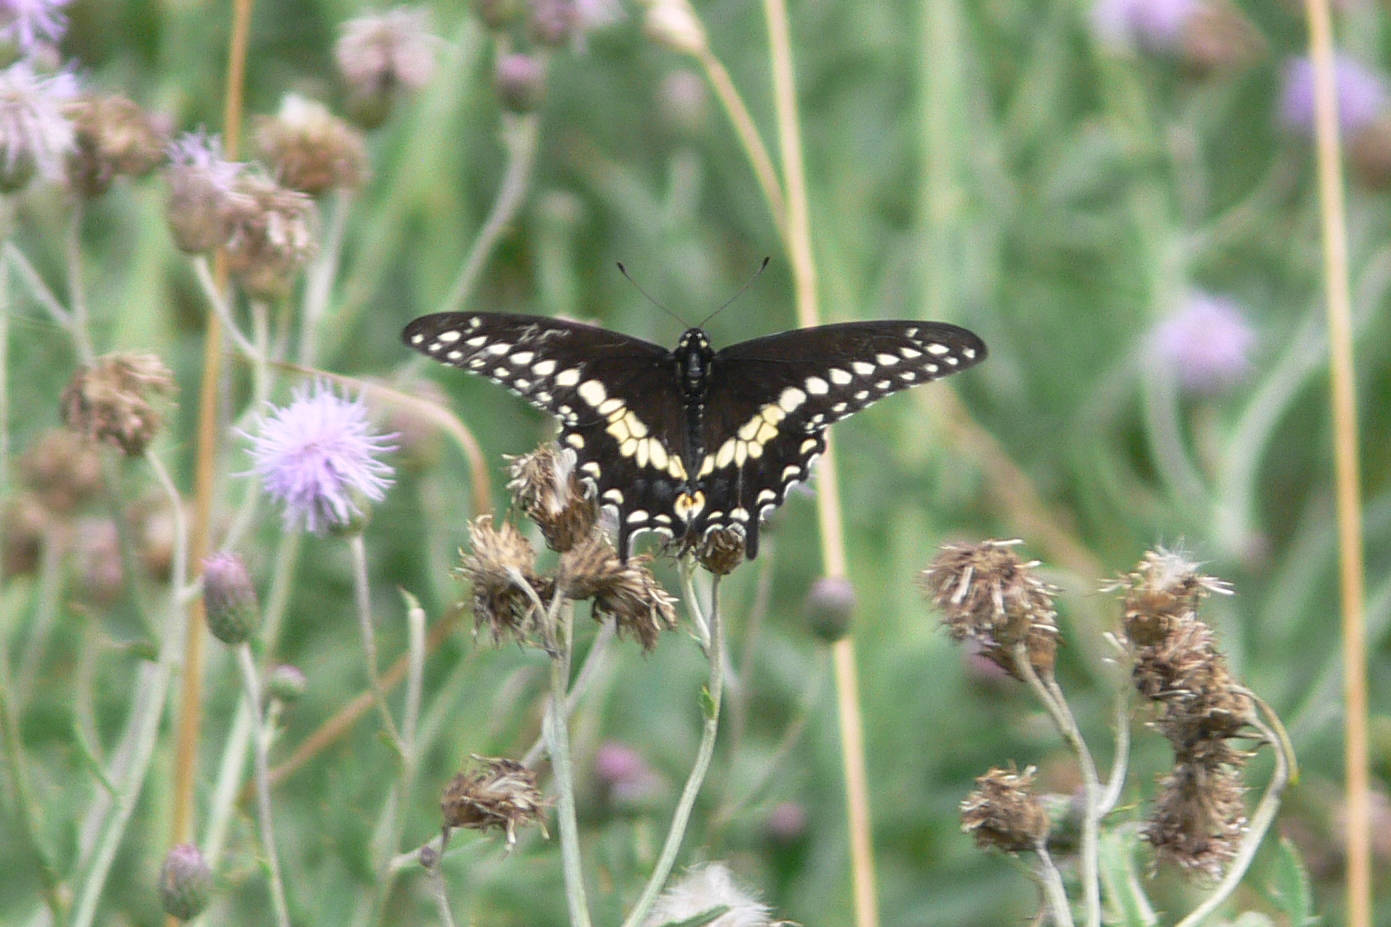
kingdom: Animalia
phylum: Arthropoda
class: Insecta
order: Lepidoptera
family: Papilionidae
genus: Papilio
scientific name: Papilio polyxenes
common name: Black swallowtail
